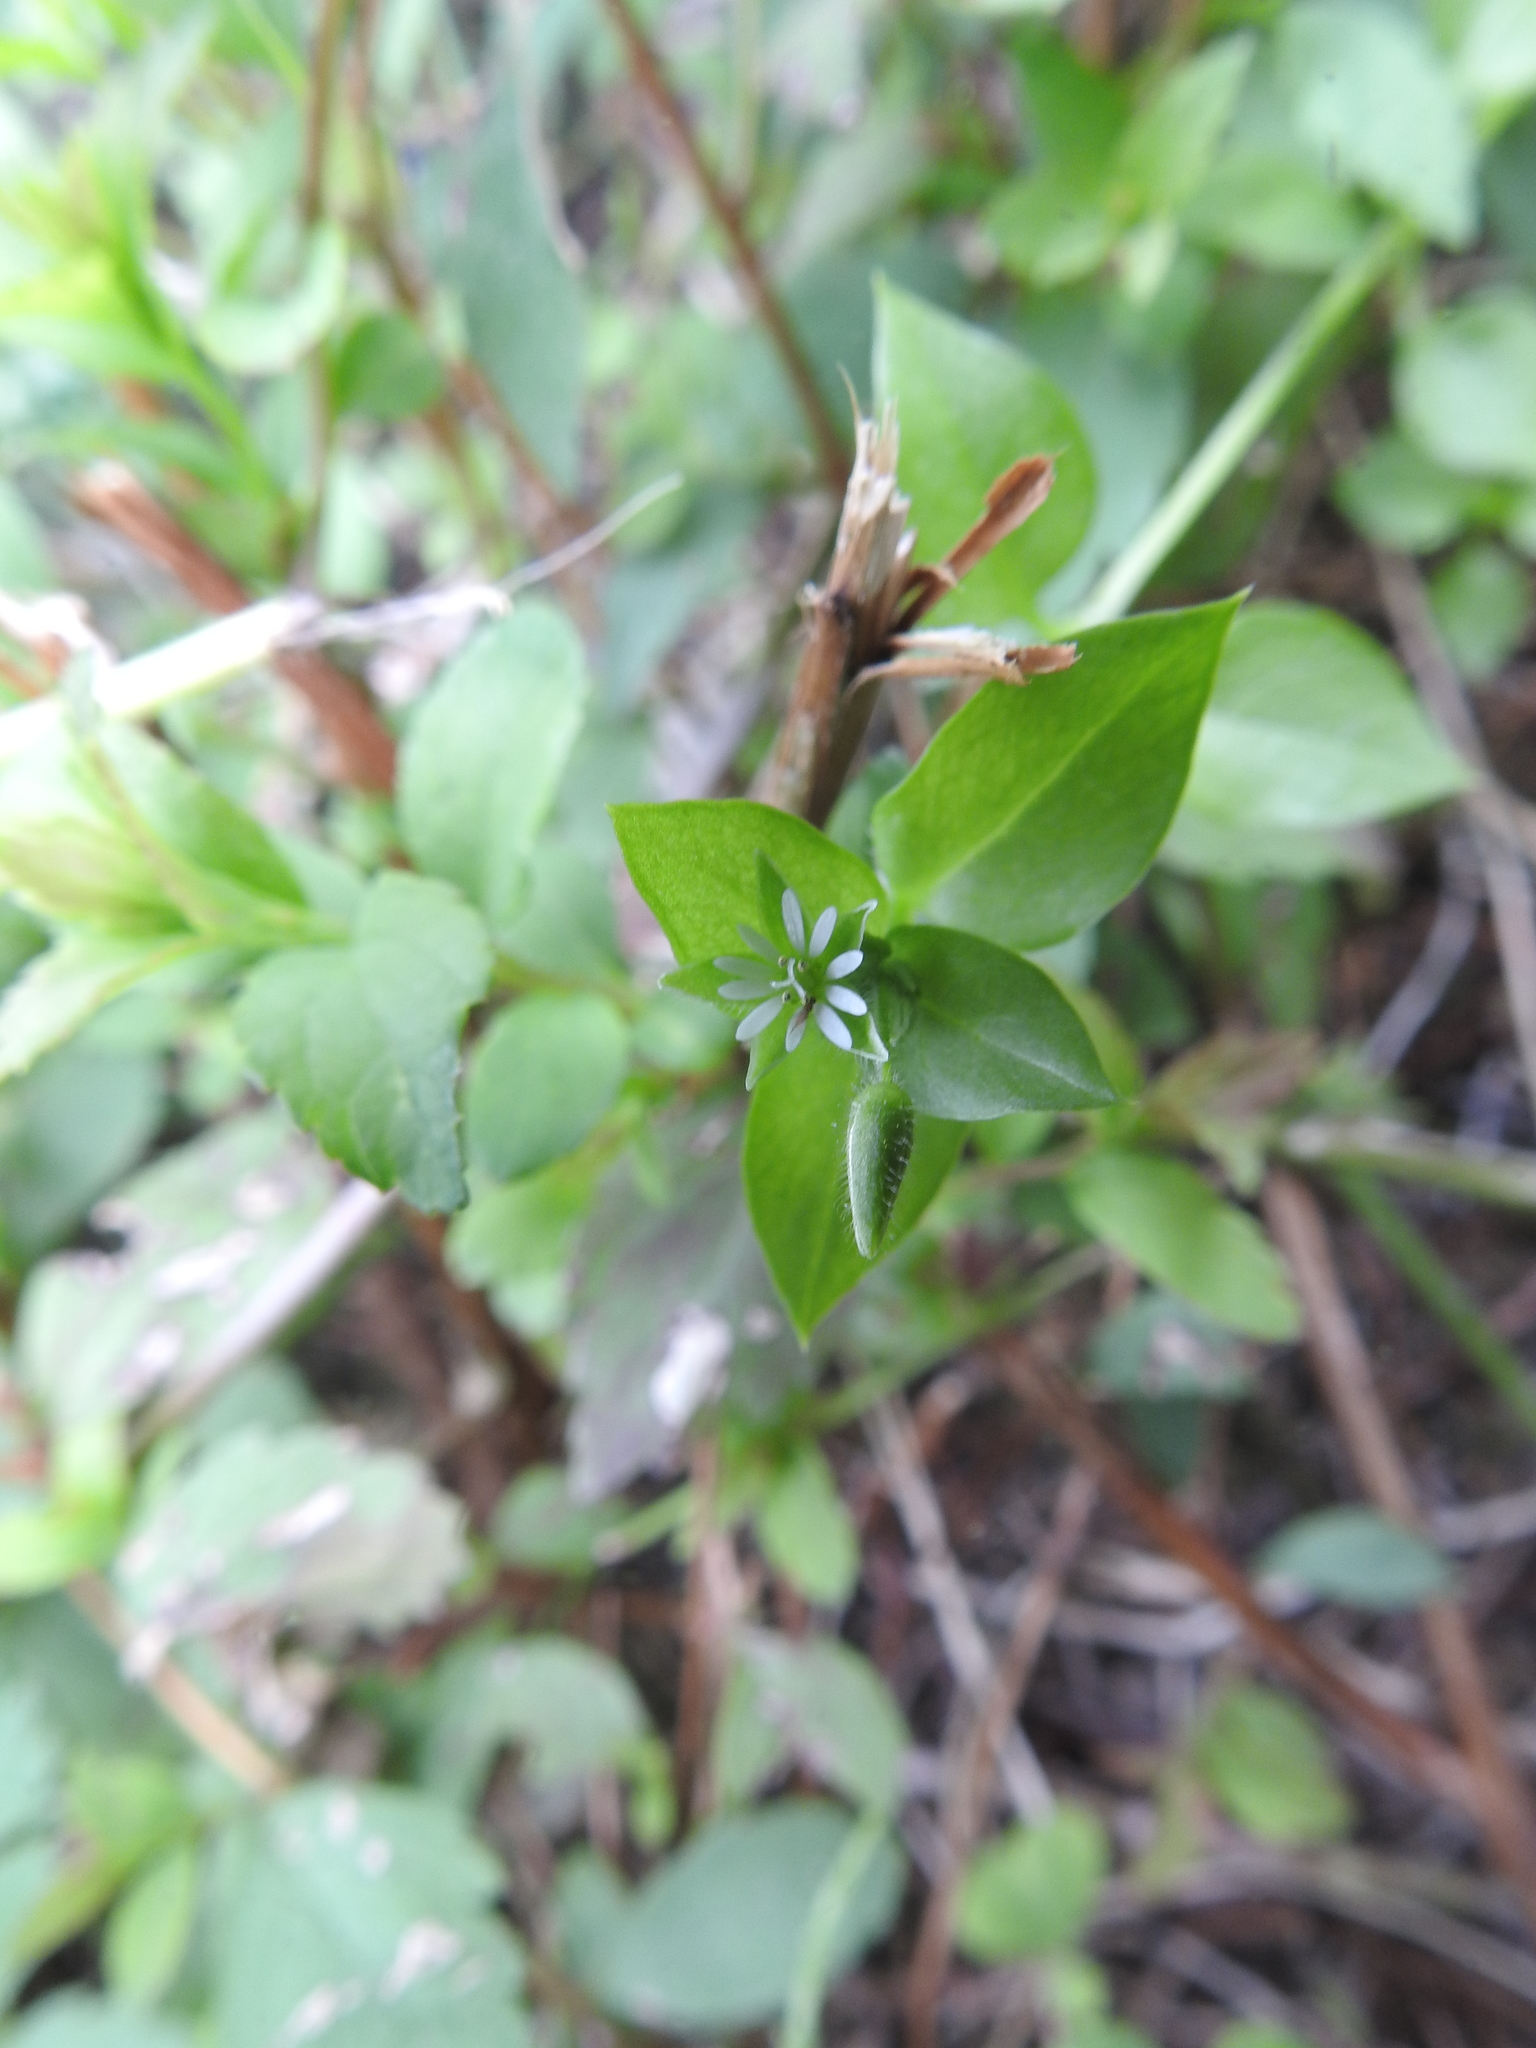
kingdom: Plantae
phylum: Tracheophyta
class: Magnoliopsida
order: Caryophyllales
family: Caryophyllaceae
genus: Stellaria
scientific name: Stellaria media
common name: Common chickweed
